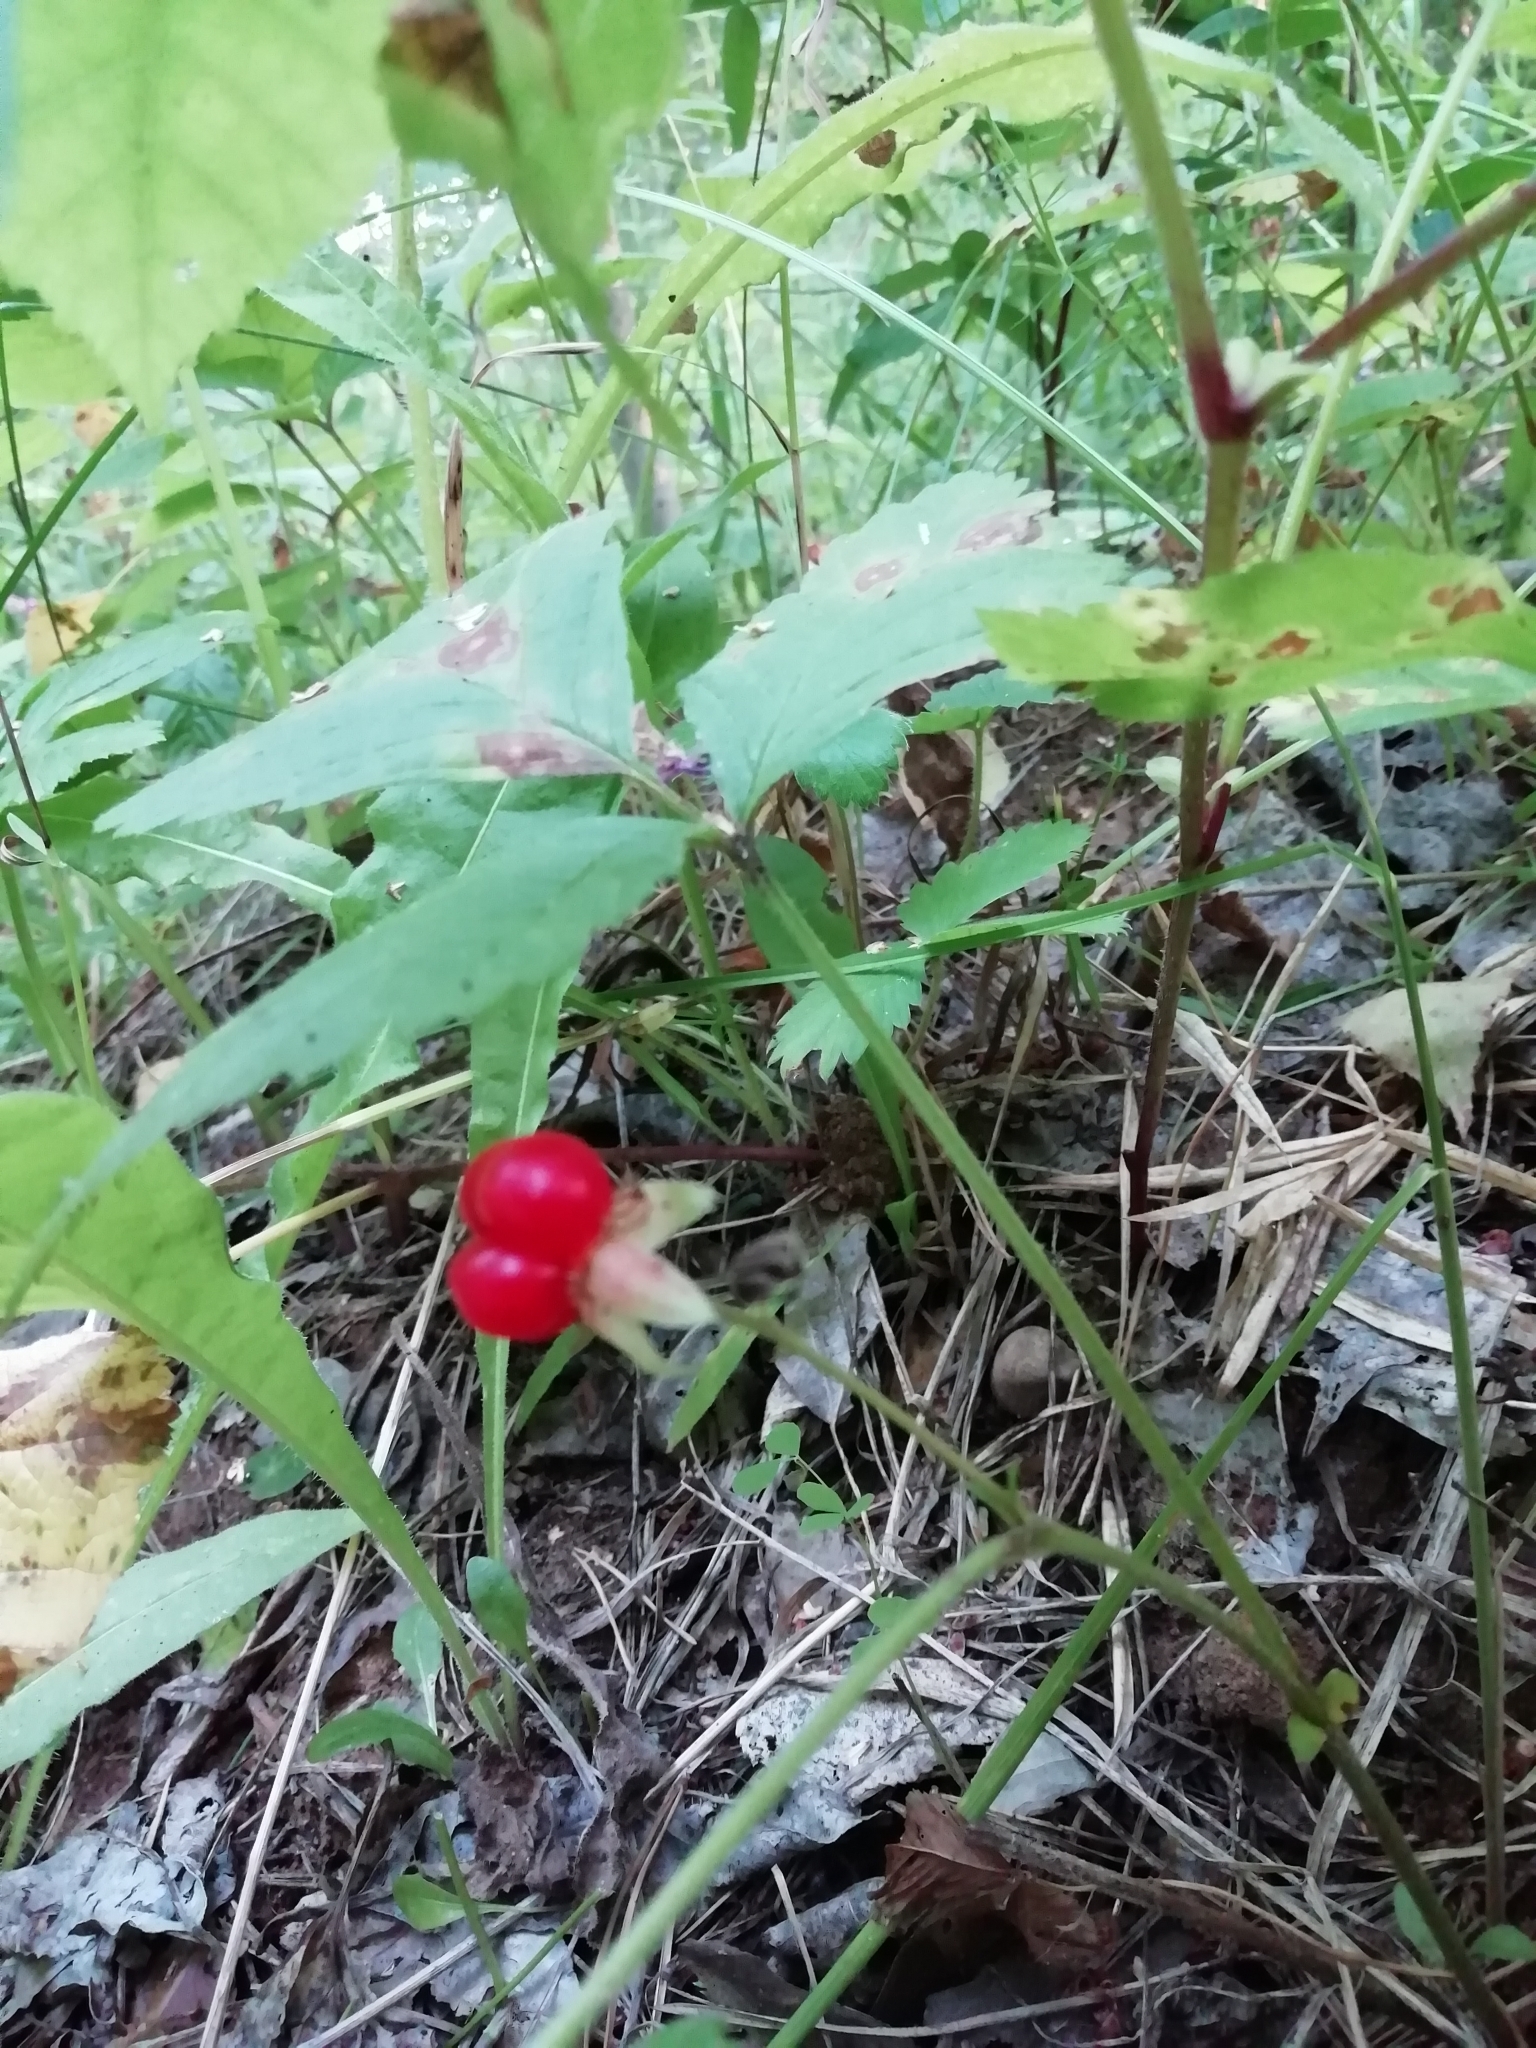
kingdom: Plantae
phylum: Tracheophyta
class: Magnoliopsida
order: Rosales
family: Rosaceae
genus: Rubus
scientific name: Rubus saxatilis
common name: Stone bramble
